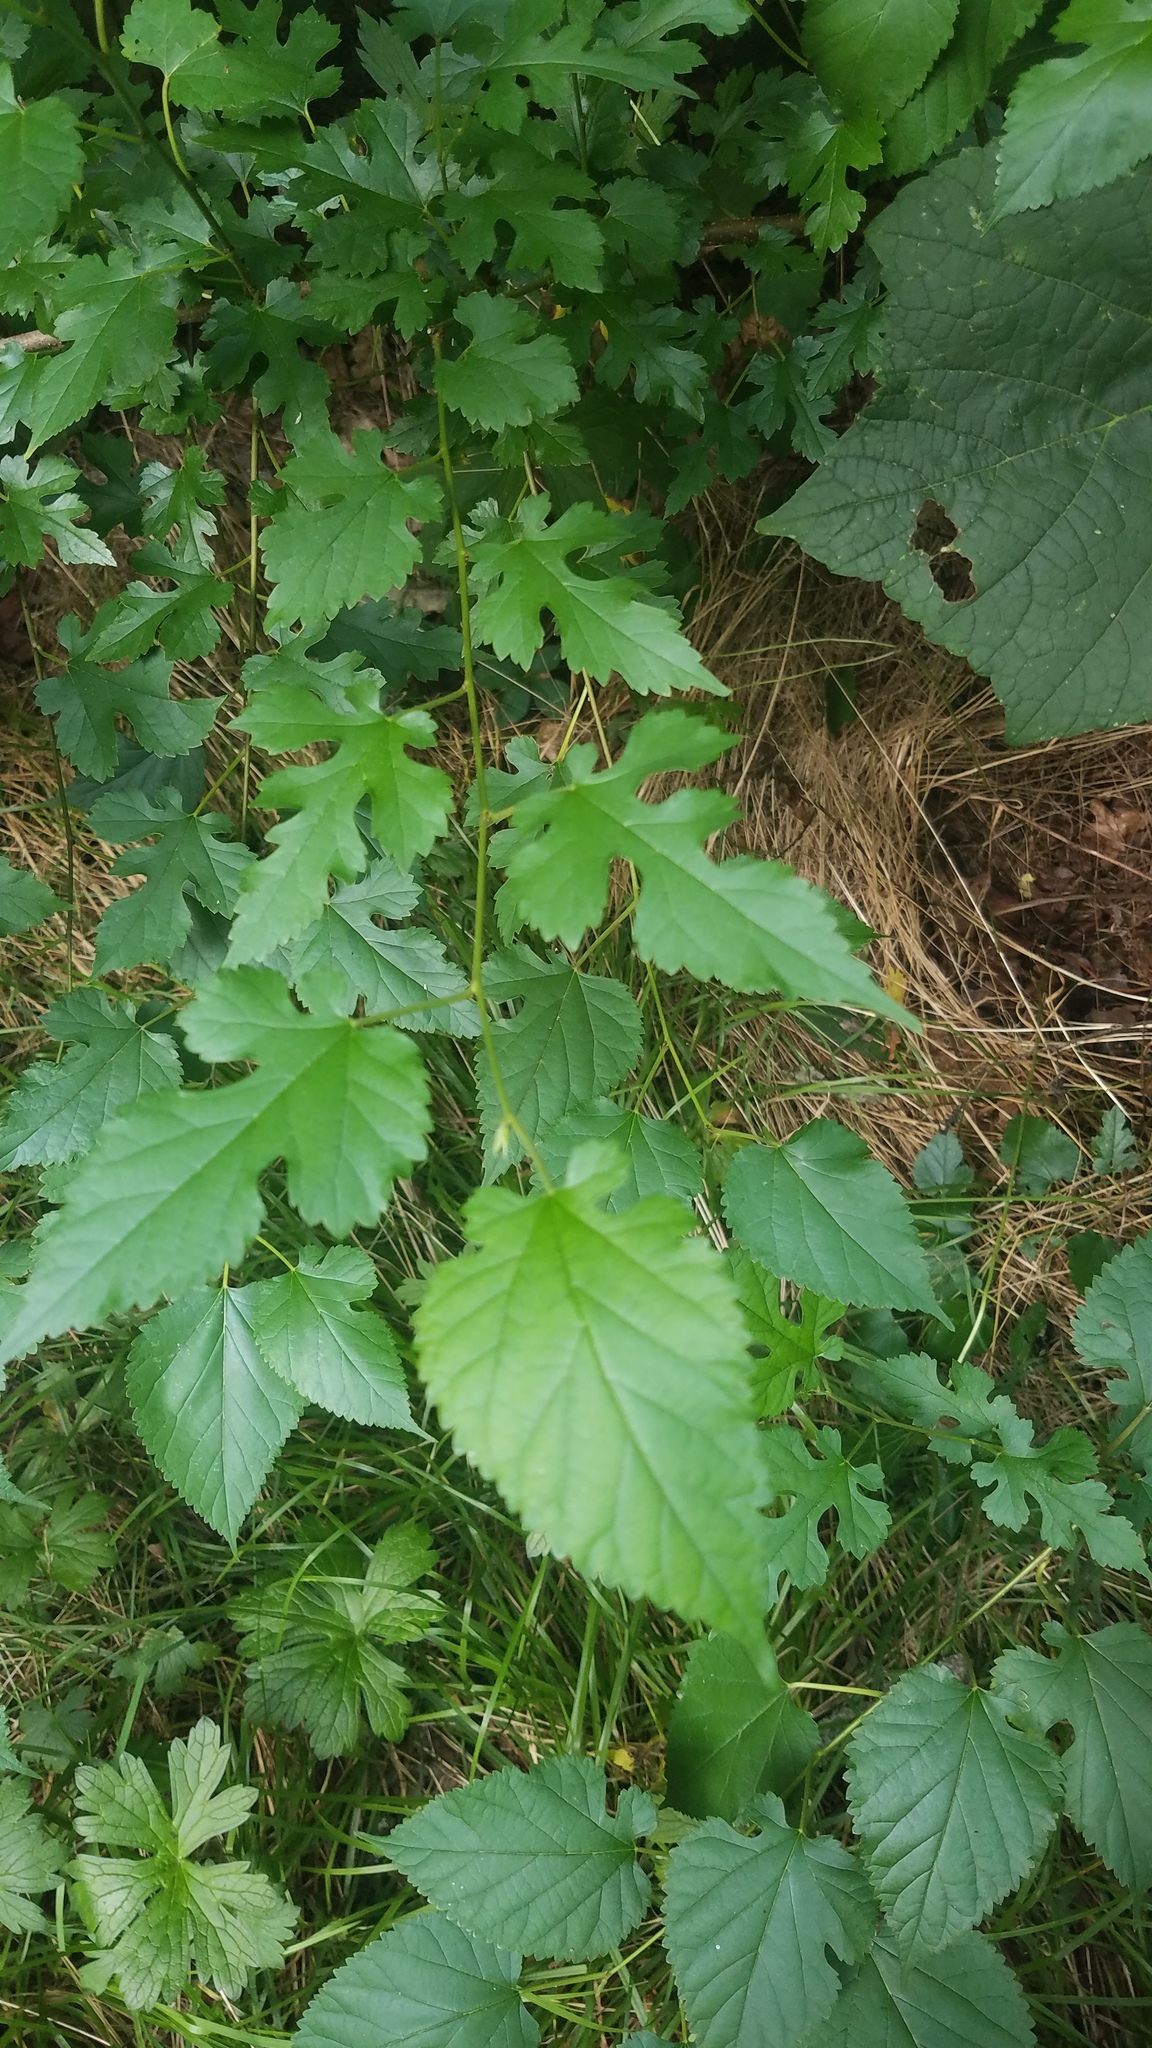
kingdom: Plantae
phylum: Tracheophyta
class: Magnoliopsida
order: Rosales
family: Moraceae
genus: Morus
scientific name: Morus alba
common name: White mulberry
